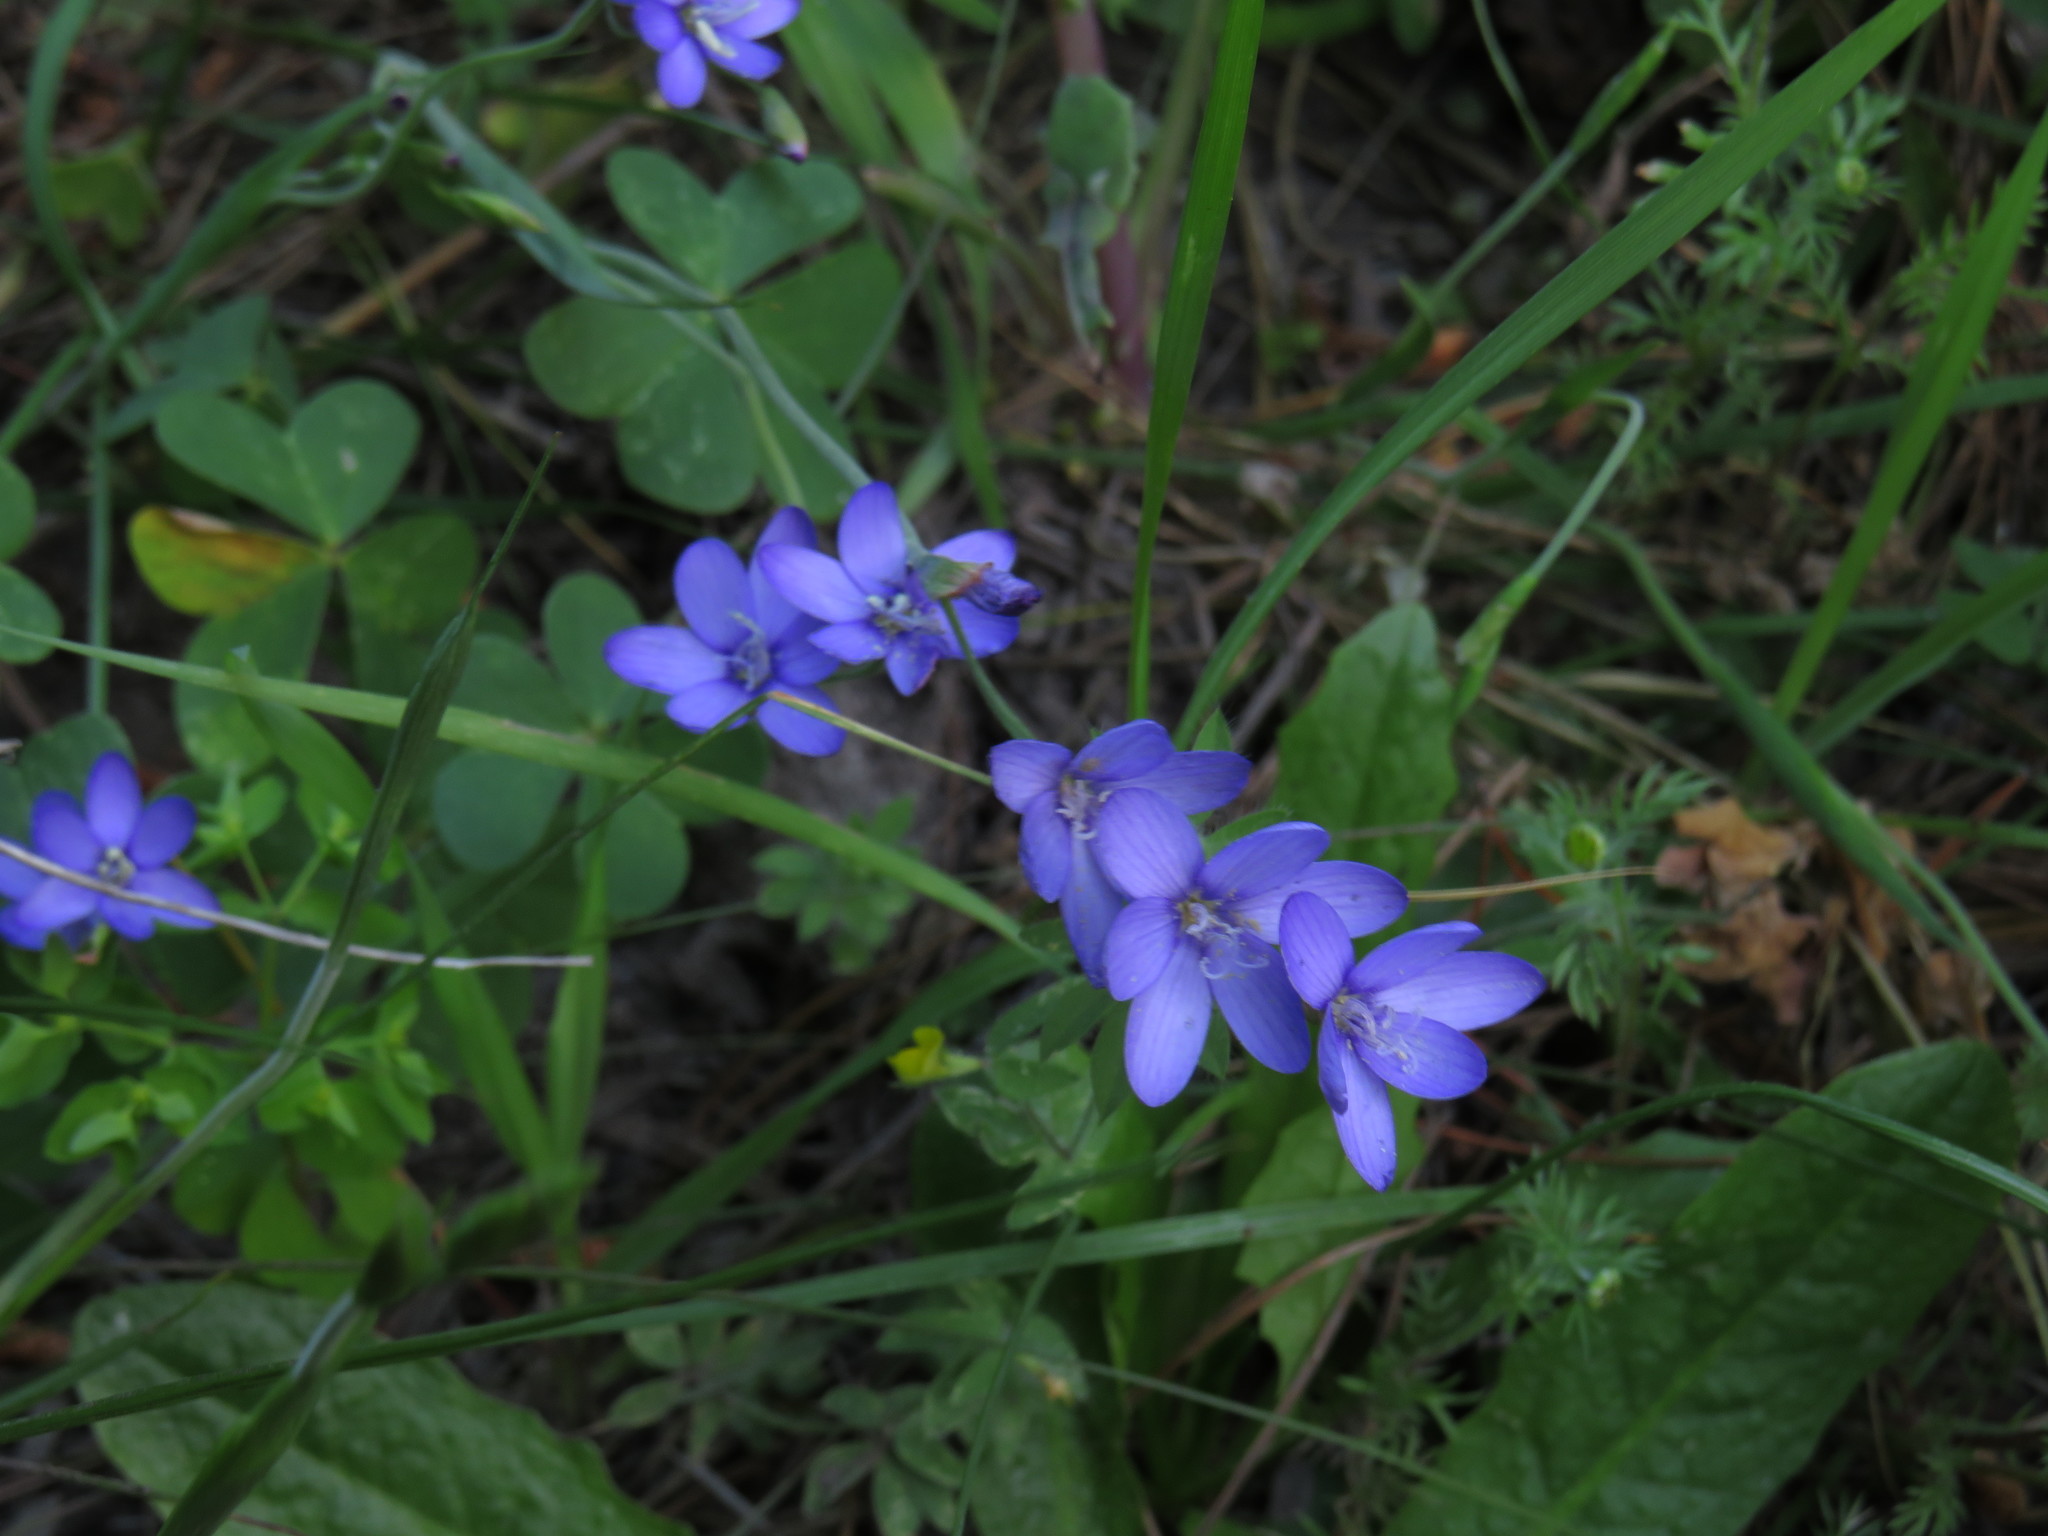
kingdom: Plantae
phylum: Tracheophyta
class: Liliopsida
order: Asparagales
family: Iridaceae
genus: Geissorhiza
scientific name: Geissorhiza aspera
